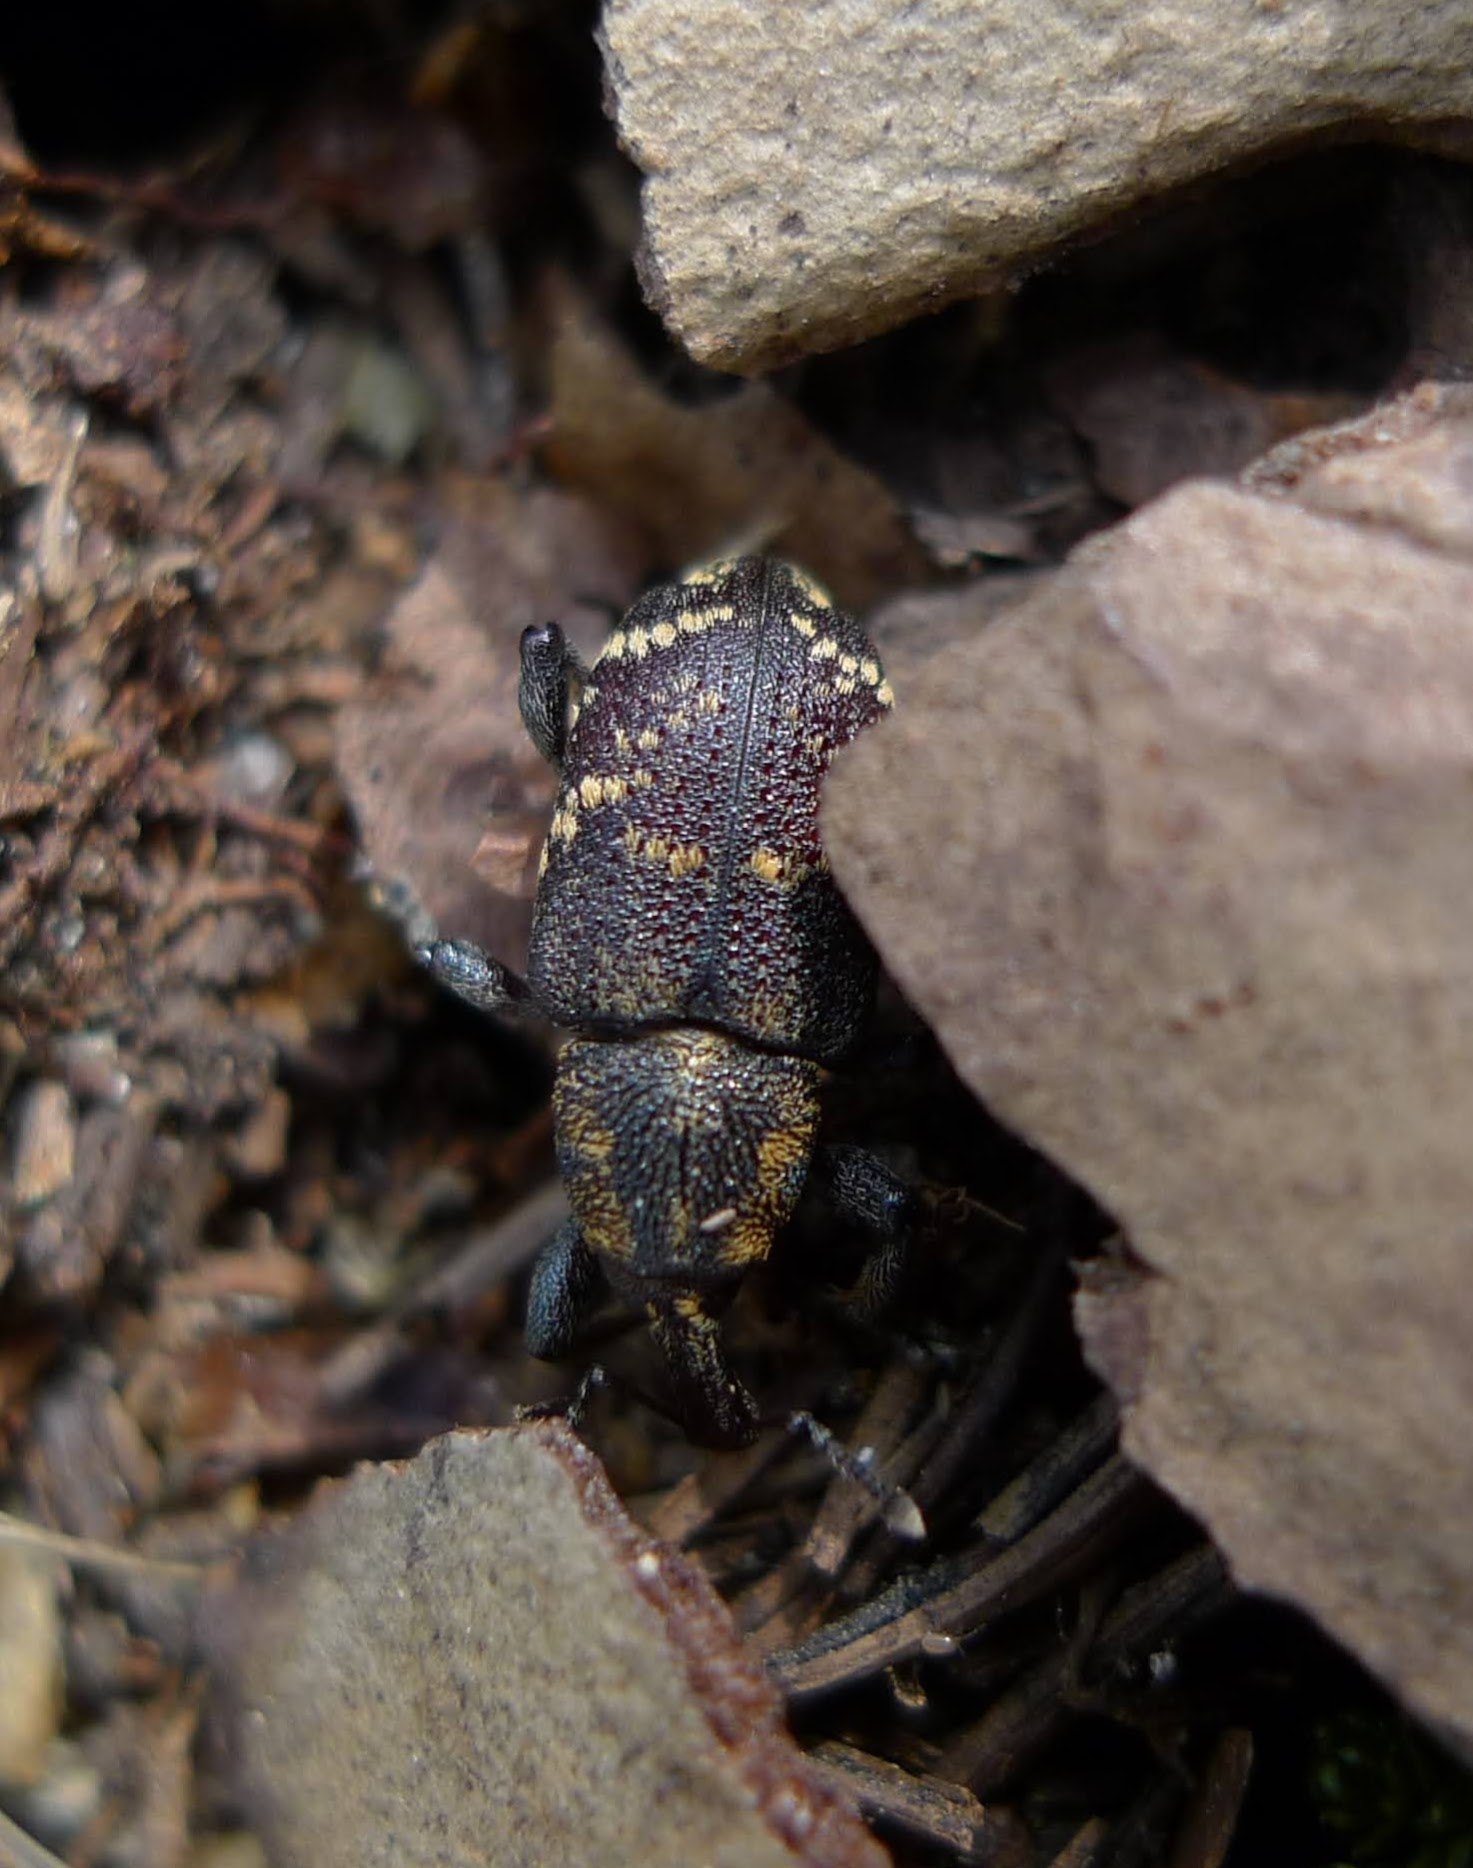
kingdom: Animalia
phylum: Arthropoda
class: Insecta
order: Coleoptera
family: Curculionidae
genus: Hylobius
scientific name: Hylobius abietis
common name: Large pine weevil
